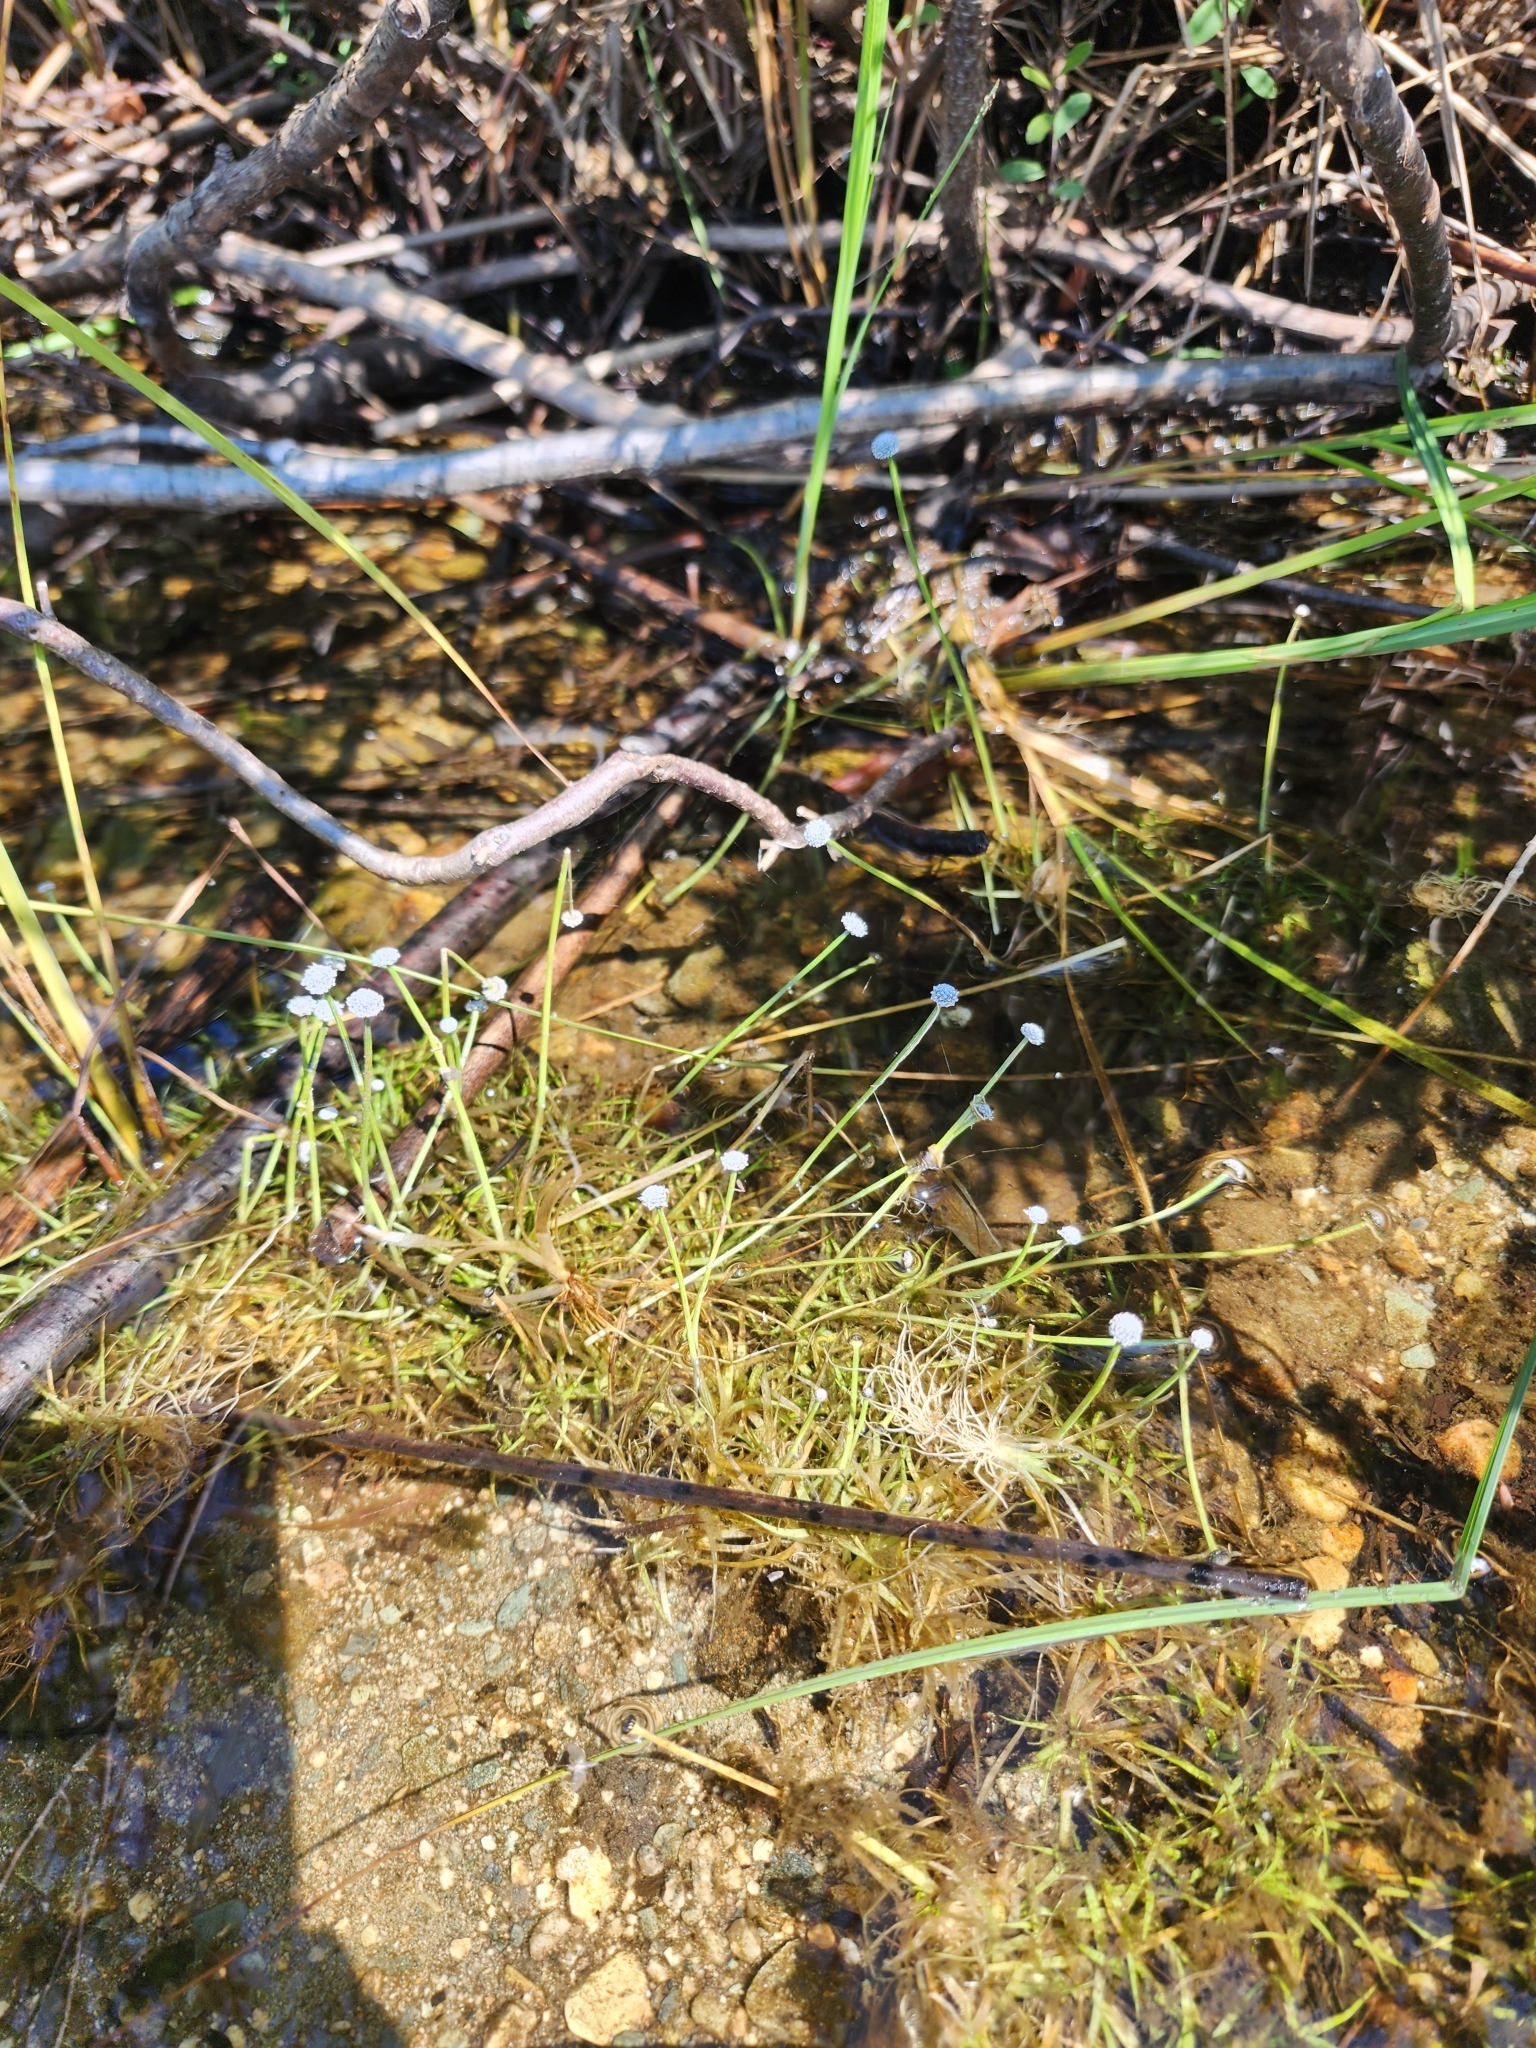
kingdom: Plantae
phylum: Tracheophyta
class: Liliopsida
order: Poales
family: Eriocaulaceae
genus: Eriocaulon
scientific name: Eriocaulon aquaticum
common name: Pipewort
